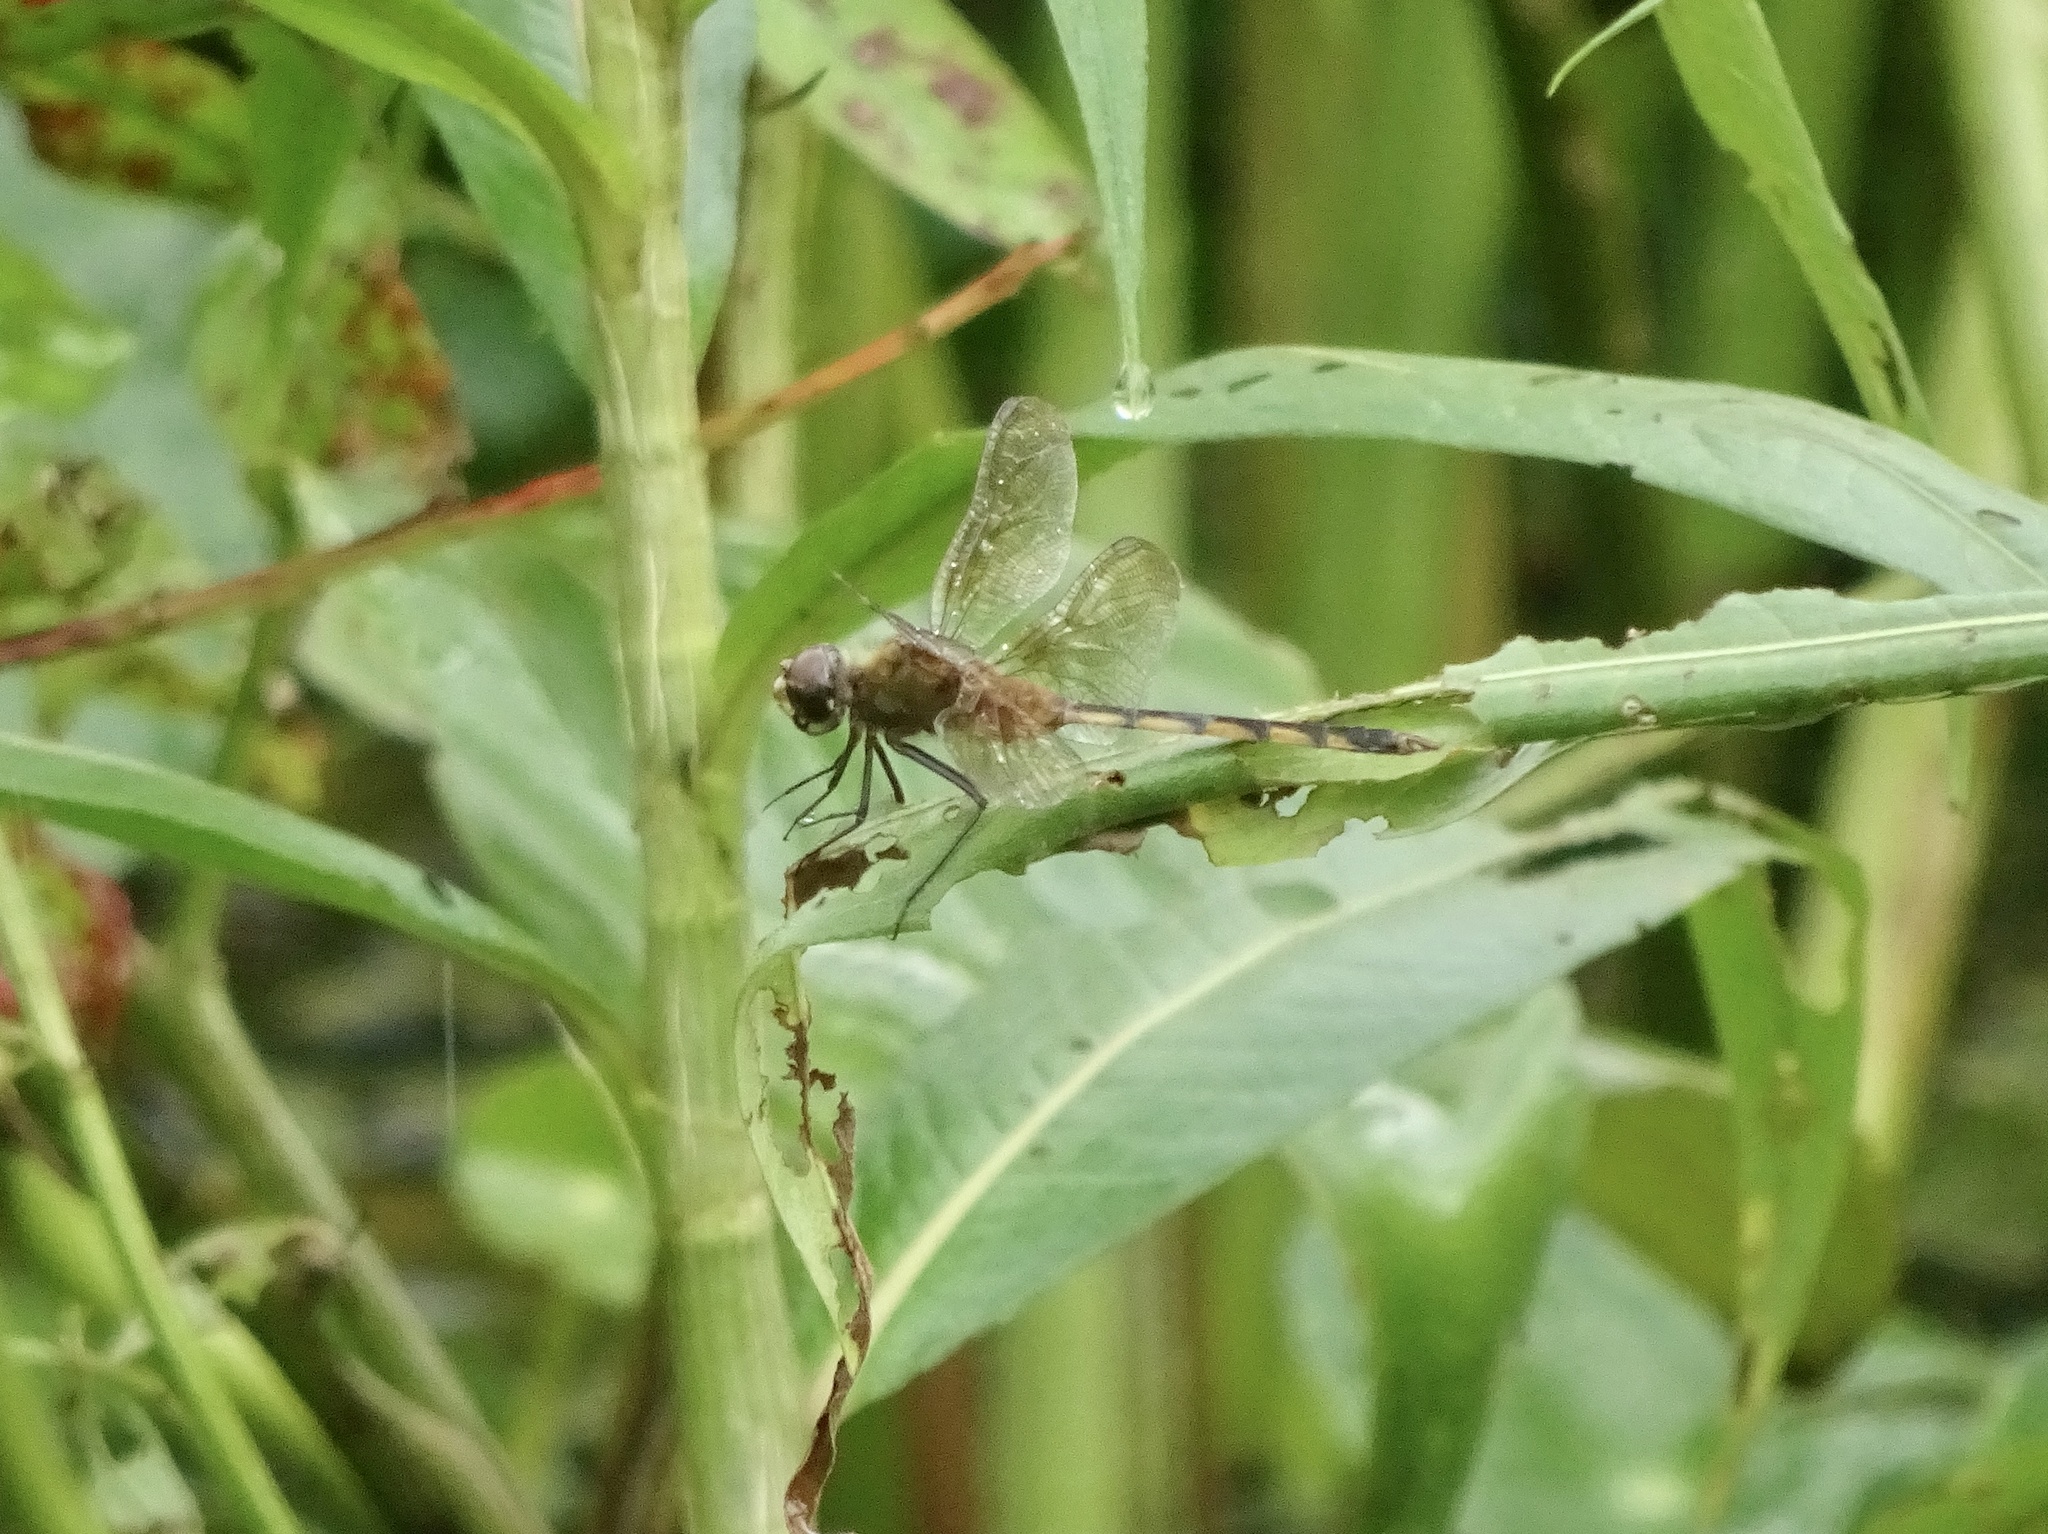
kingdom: Animalia
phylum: Arthropoda
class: Insecta
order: Odonata
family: Libellulidae
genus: Brachymesia
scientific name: Brachymesia herbida
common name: Tawny pennant
